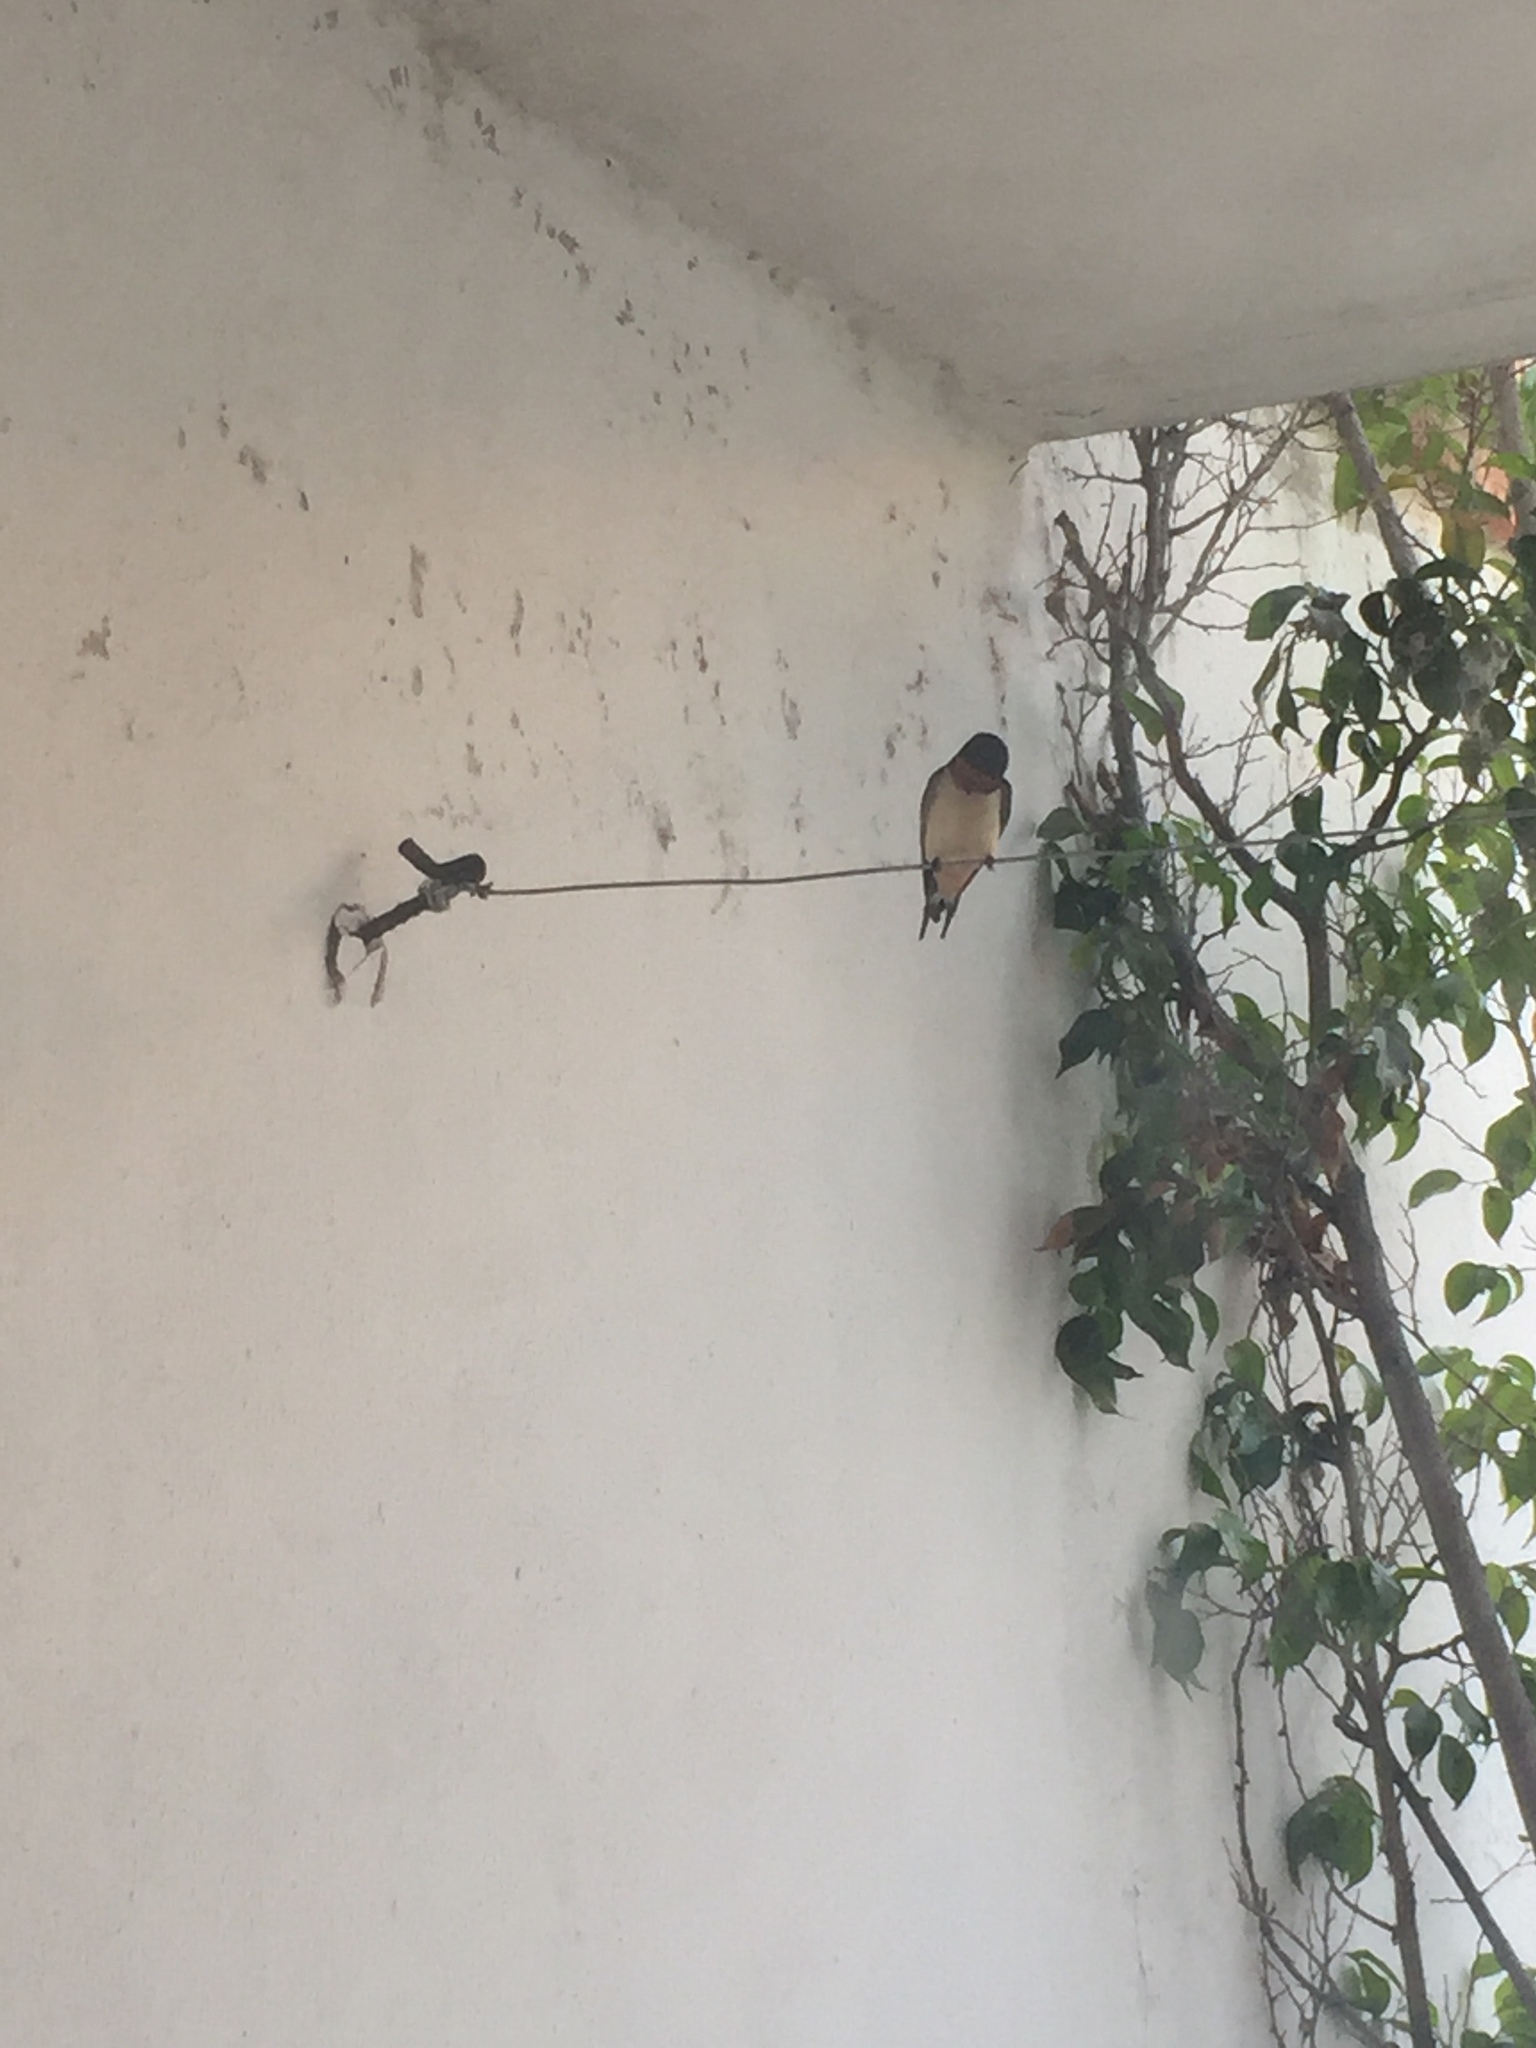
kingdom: Animalia
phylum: Chordata
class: Aves
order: Passeriformes
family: Hirundinidae
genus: Hirundo
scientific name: Hirundo rustica
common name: Barn swallow
